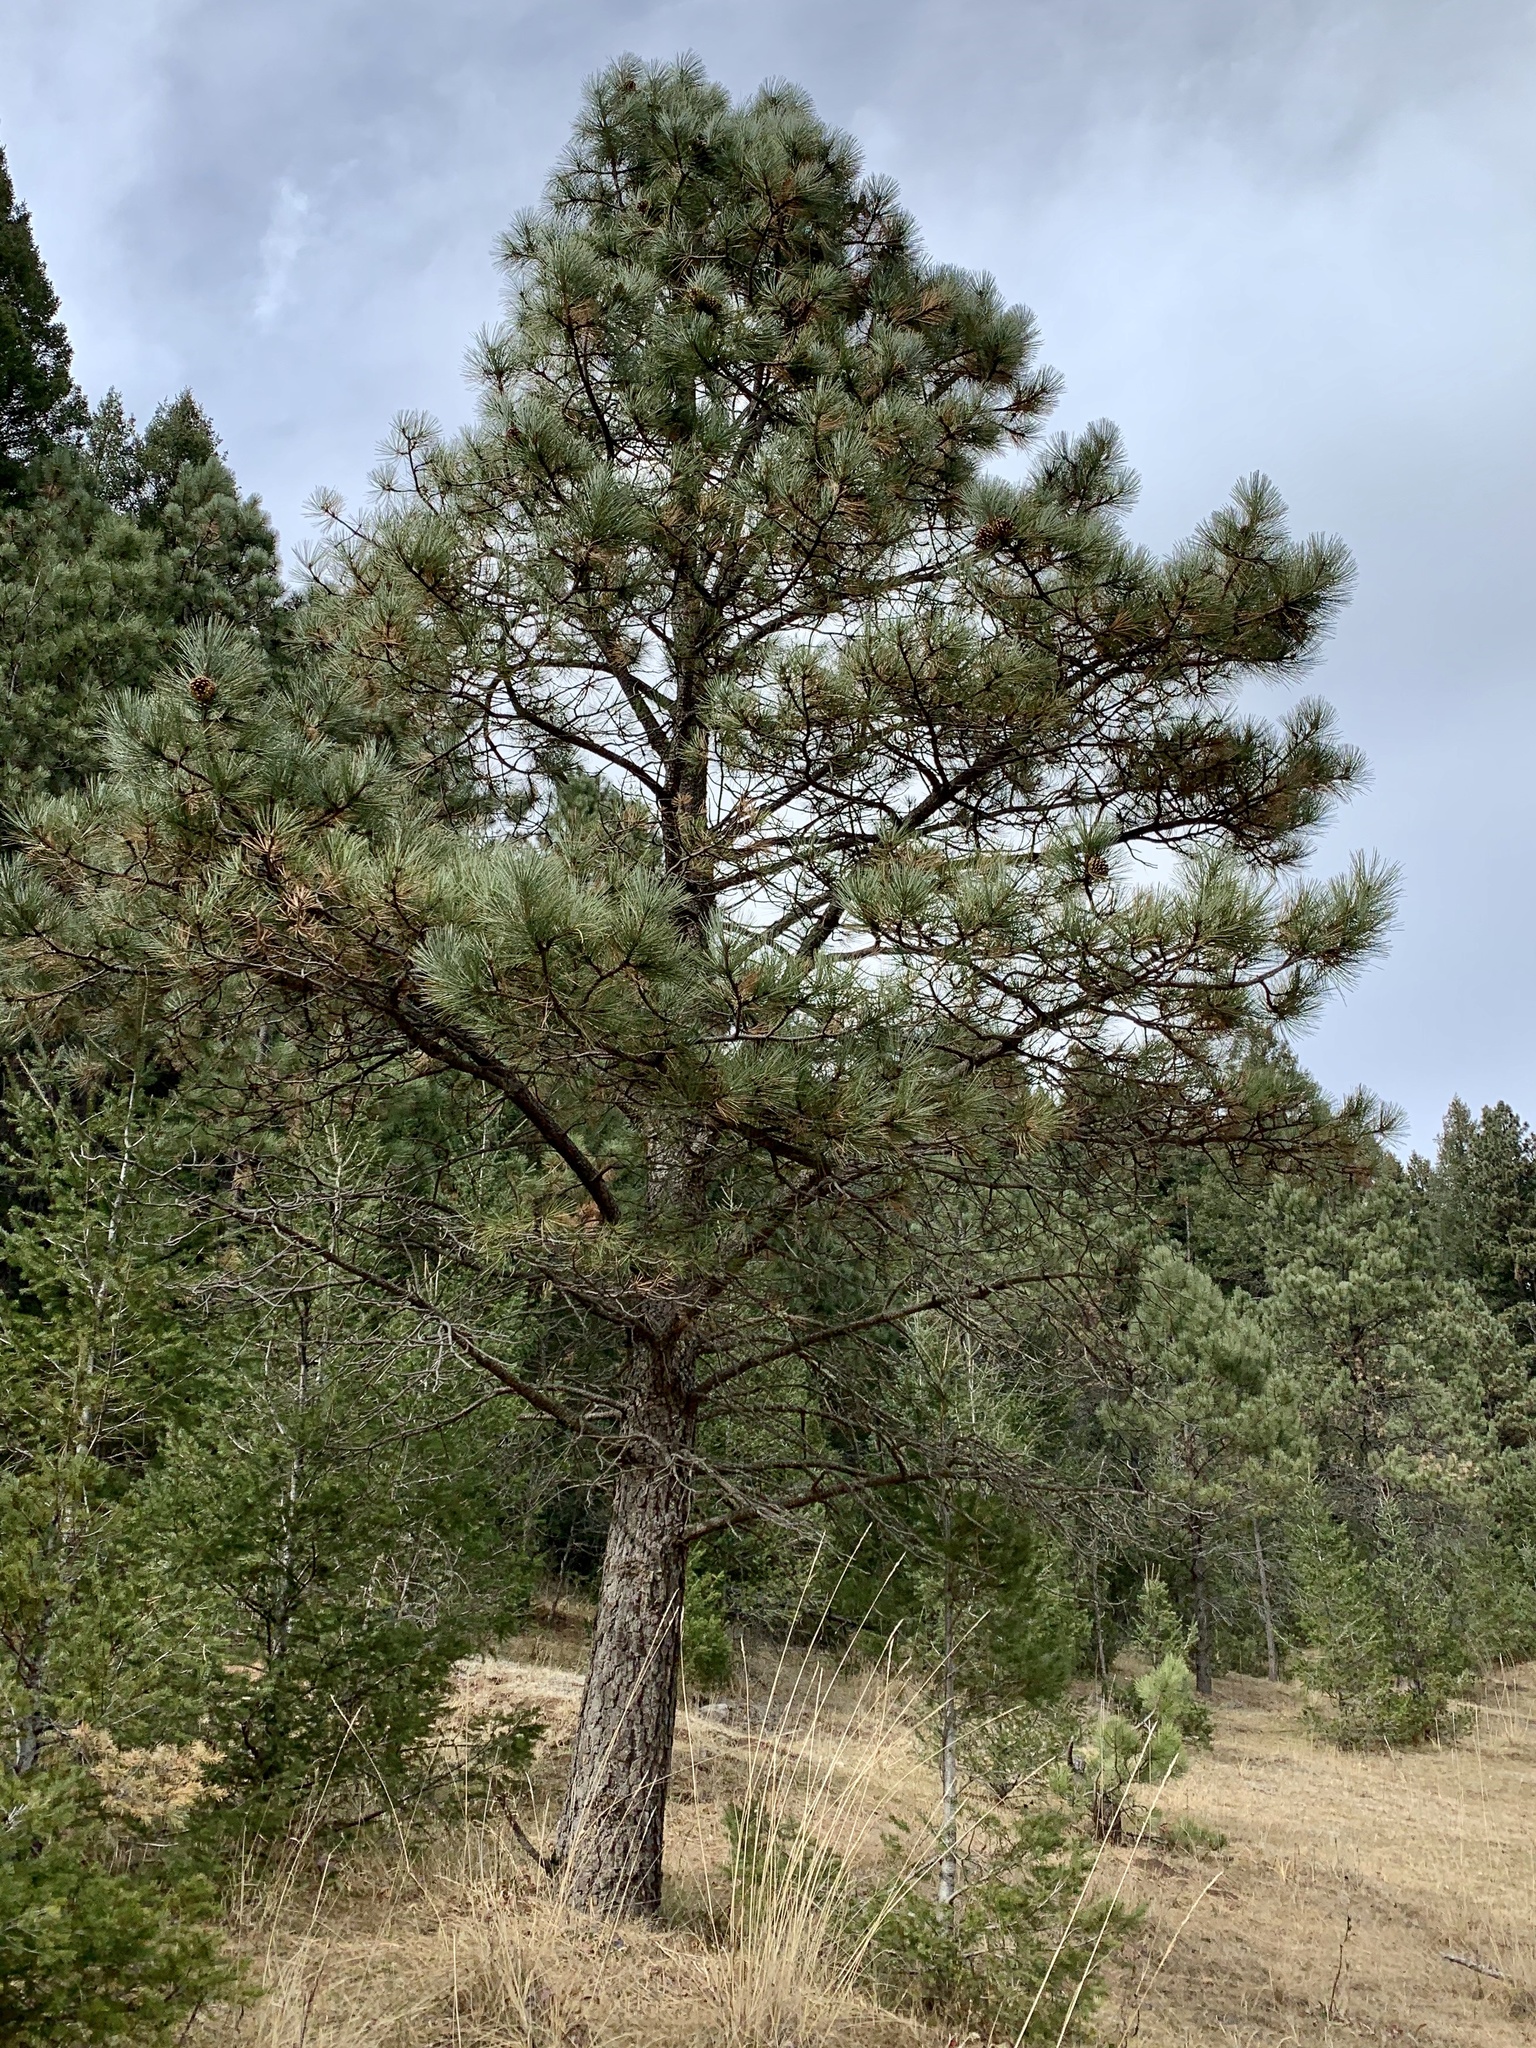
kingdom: Plantae
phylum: Tracheophyta
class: Pinopsida
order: Pinales
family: Pinaceae
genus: Pinus
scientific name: Pinus ponderosa
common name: Western yellow-pine
